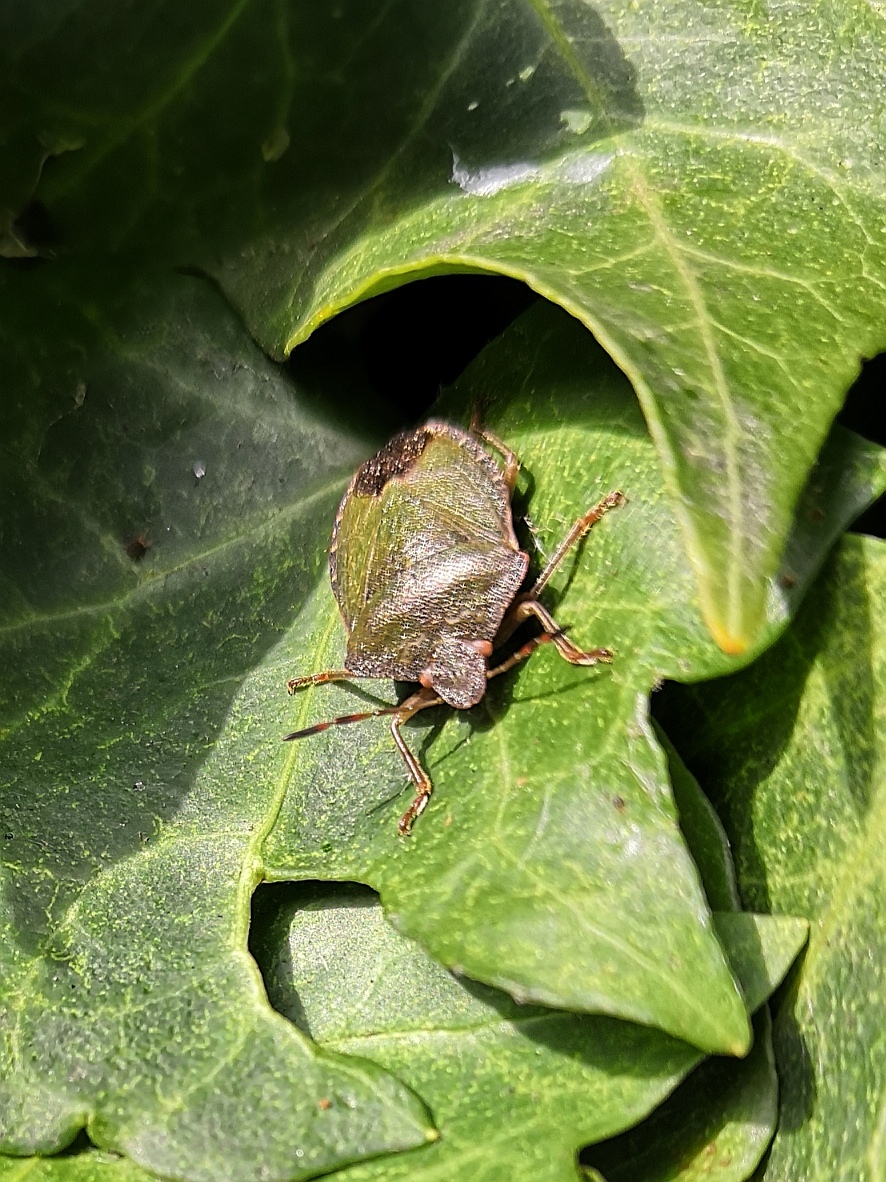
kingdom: Animalia
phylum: Arthropoda
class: Insecta
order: Hemiptera
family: Pentatomidae
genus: Palomena
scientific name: Palomena prasina
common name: Green shieldbug
